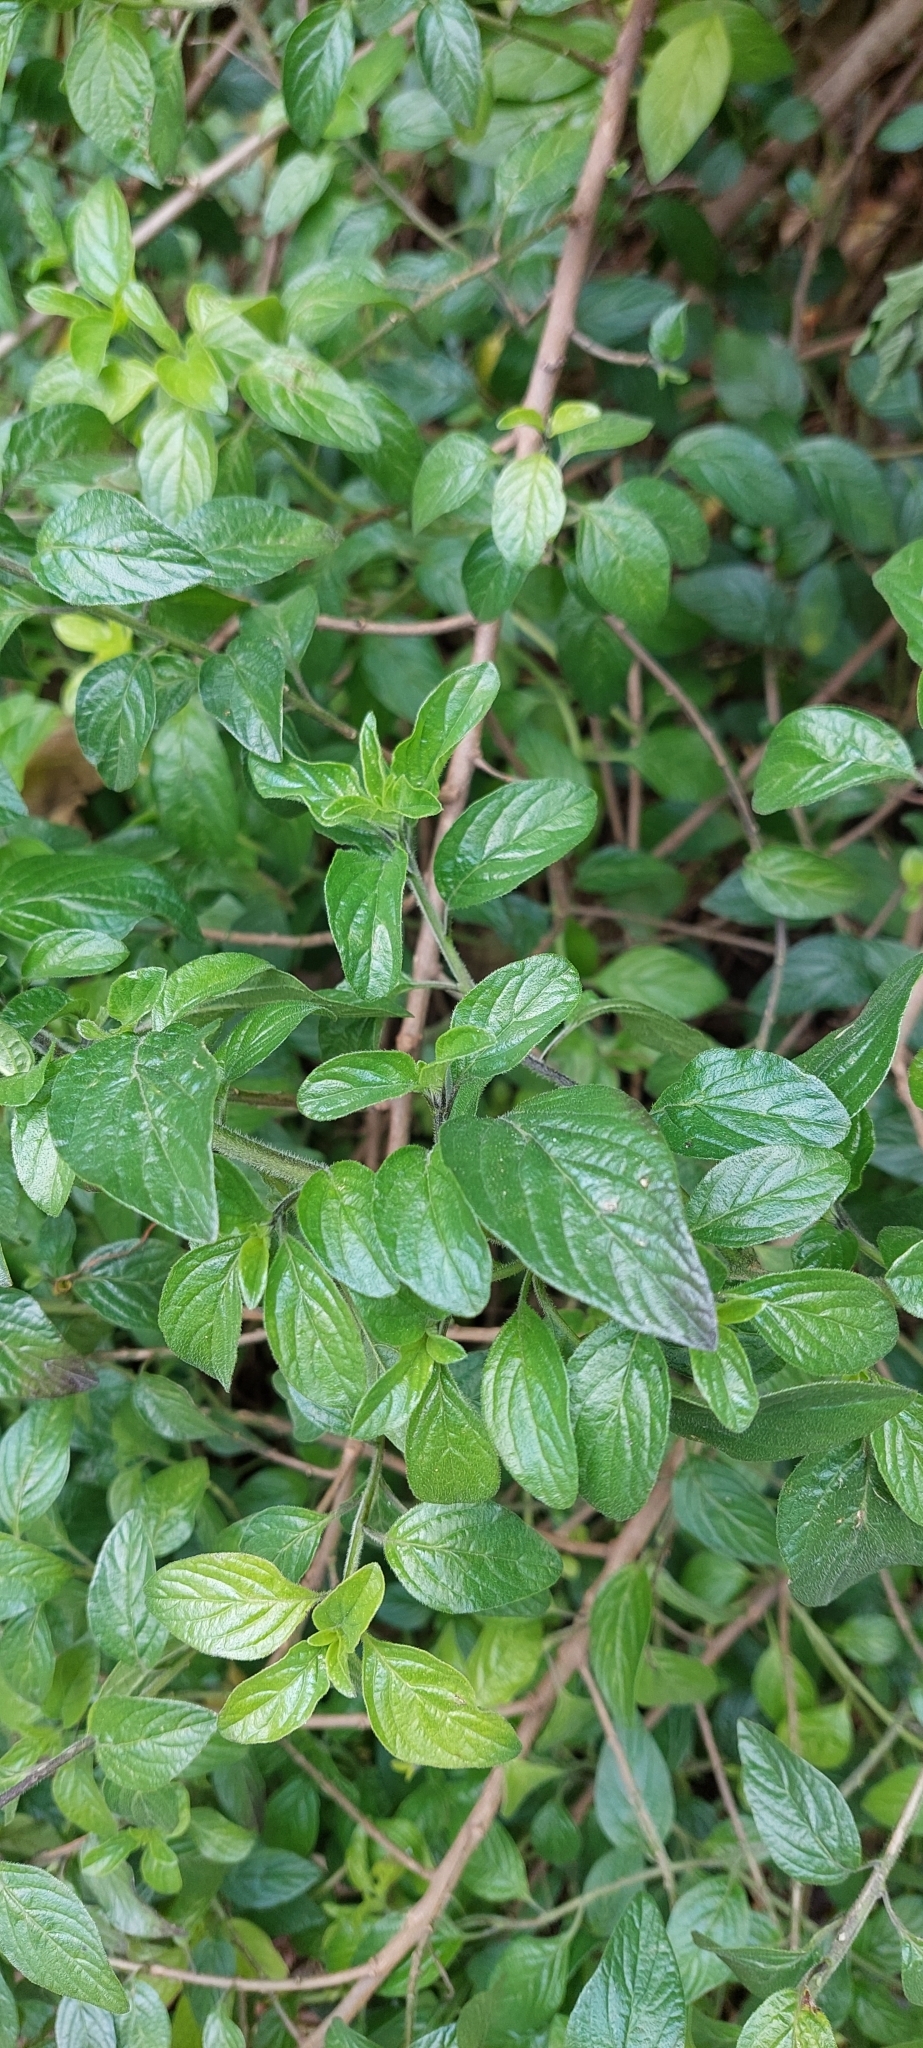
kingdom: Plantae
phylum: Tracheophyta
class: Magnoliopsida
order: Solanales
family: Solanaceae
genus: Streptosolen
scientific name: Streptosolen jamesonii
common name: Marmalade bush
